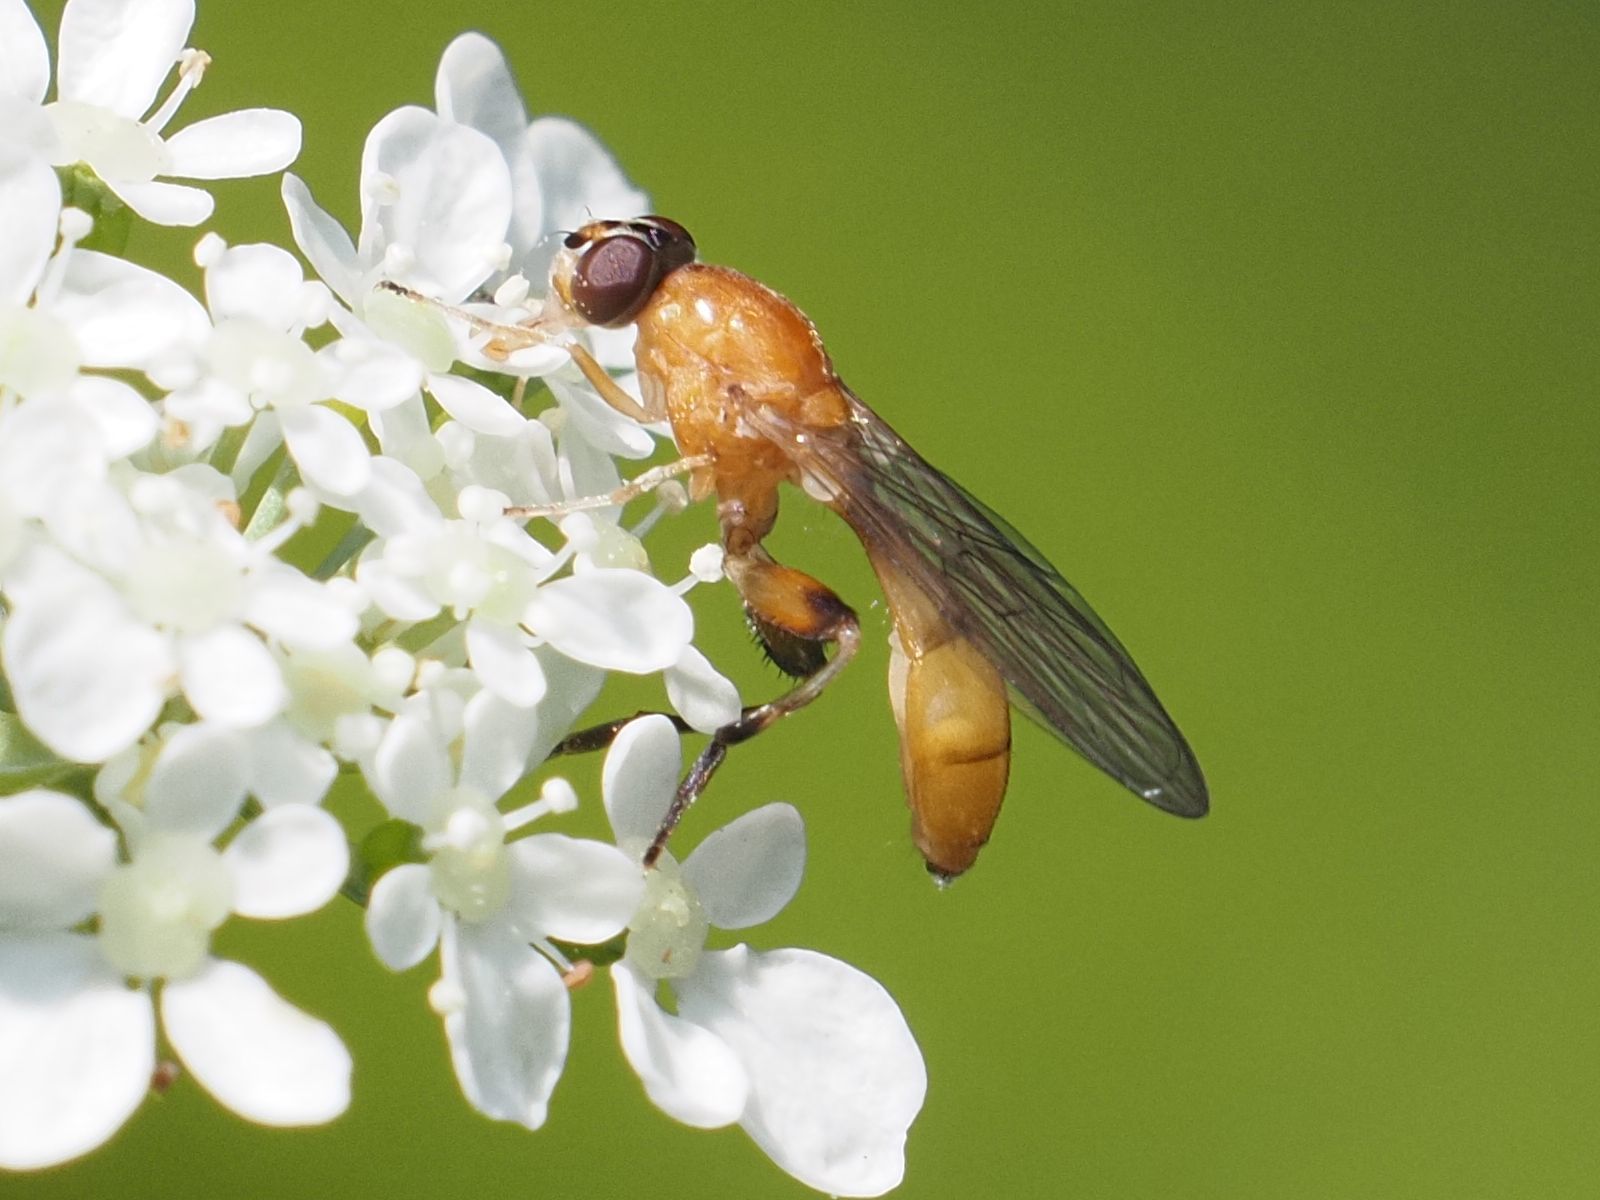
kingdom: Animalia
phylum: Arthropoda
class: Insecta
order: Diptera
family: Syrphidae
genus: Sphegina
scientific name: Sphegina sibirica
